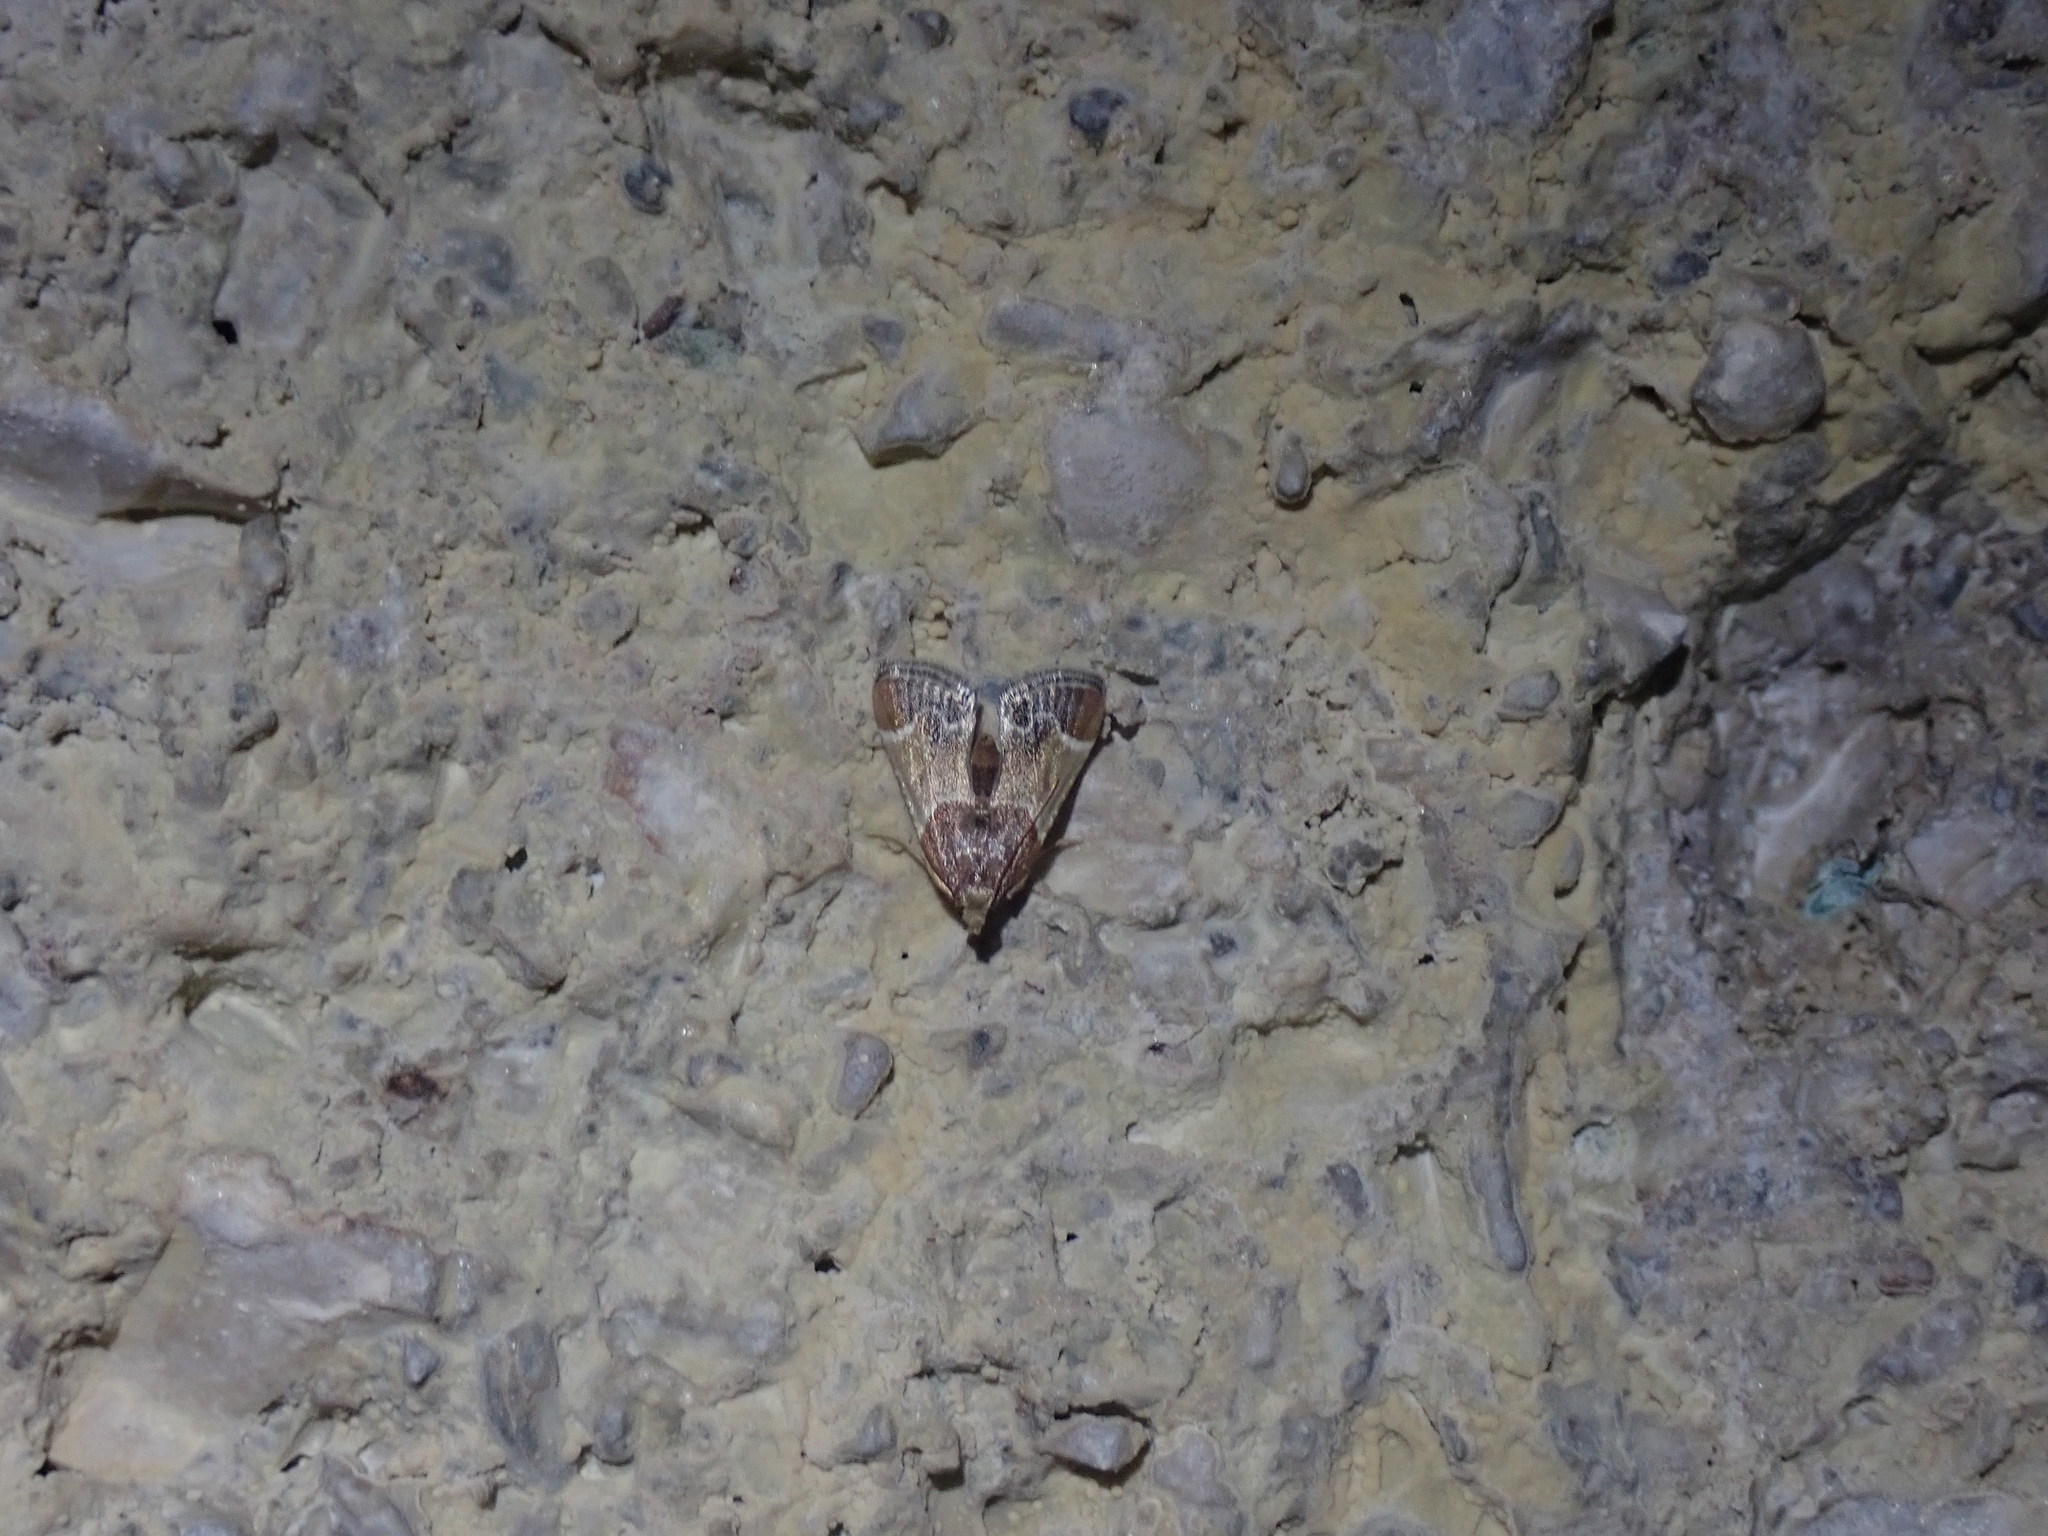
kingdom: Animalia
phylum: Arthropoda
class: Insecta
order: Lepidoptera
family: Pyralidae
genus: Pyralis
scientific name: Pyralis farinalis
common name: Meal moth
